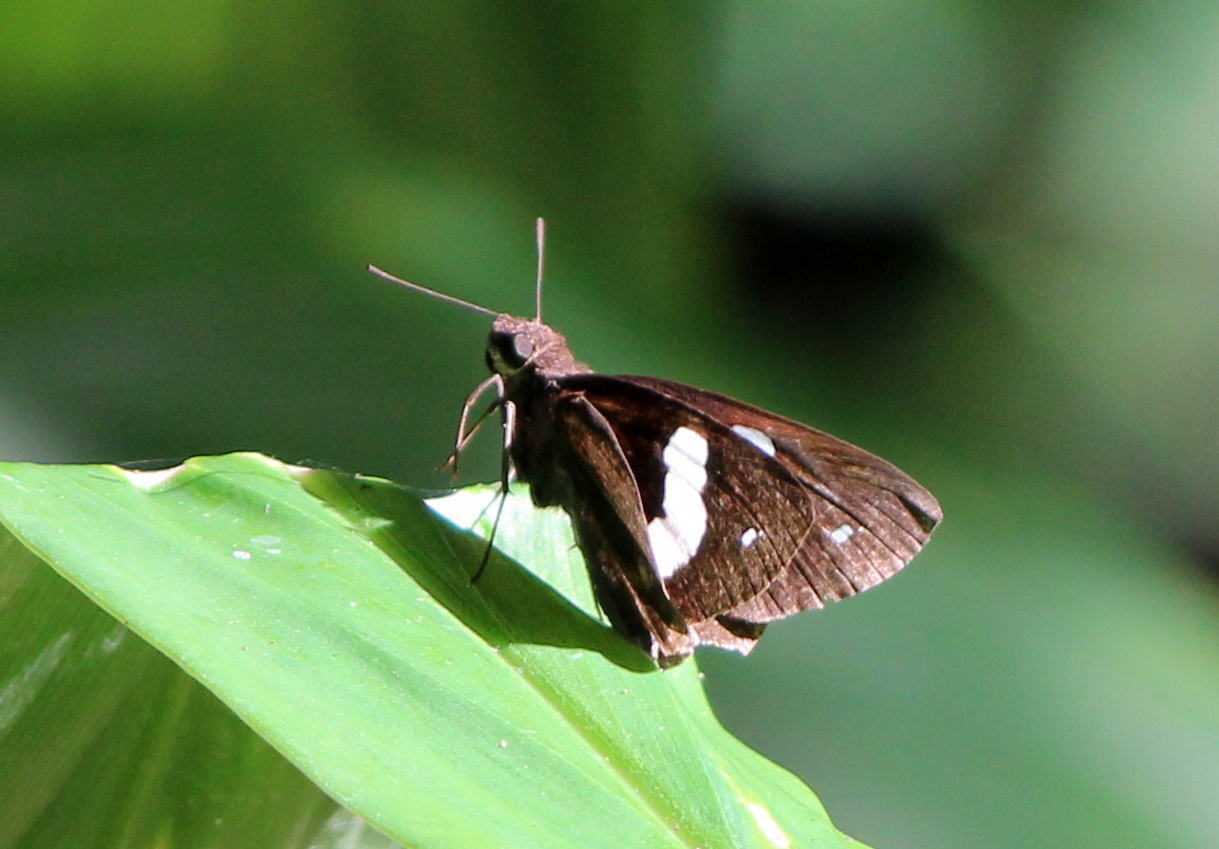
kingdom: Animalia
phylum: Arthropoda
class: Insecta
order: Lepidoptera
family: Hesperiidae
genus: Notocrypta
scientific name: Notocrypta paralysos
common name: Common banded demon
